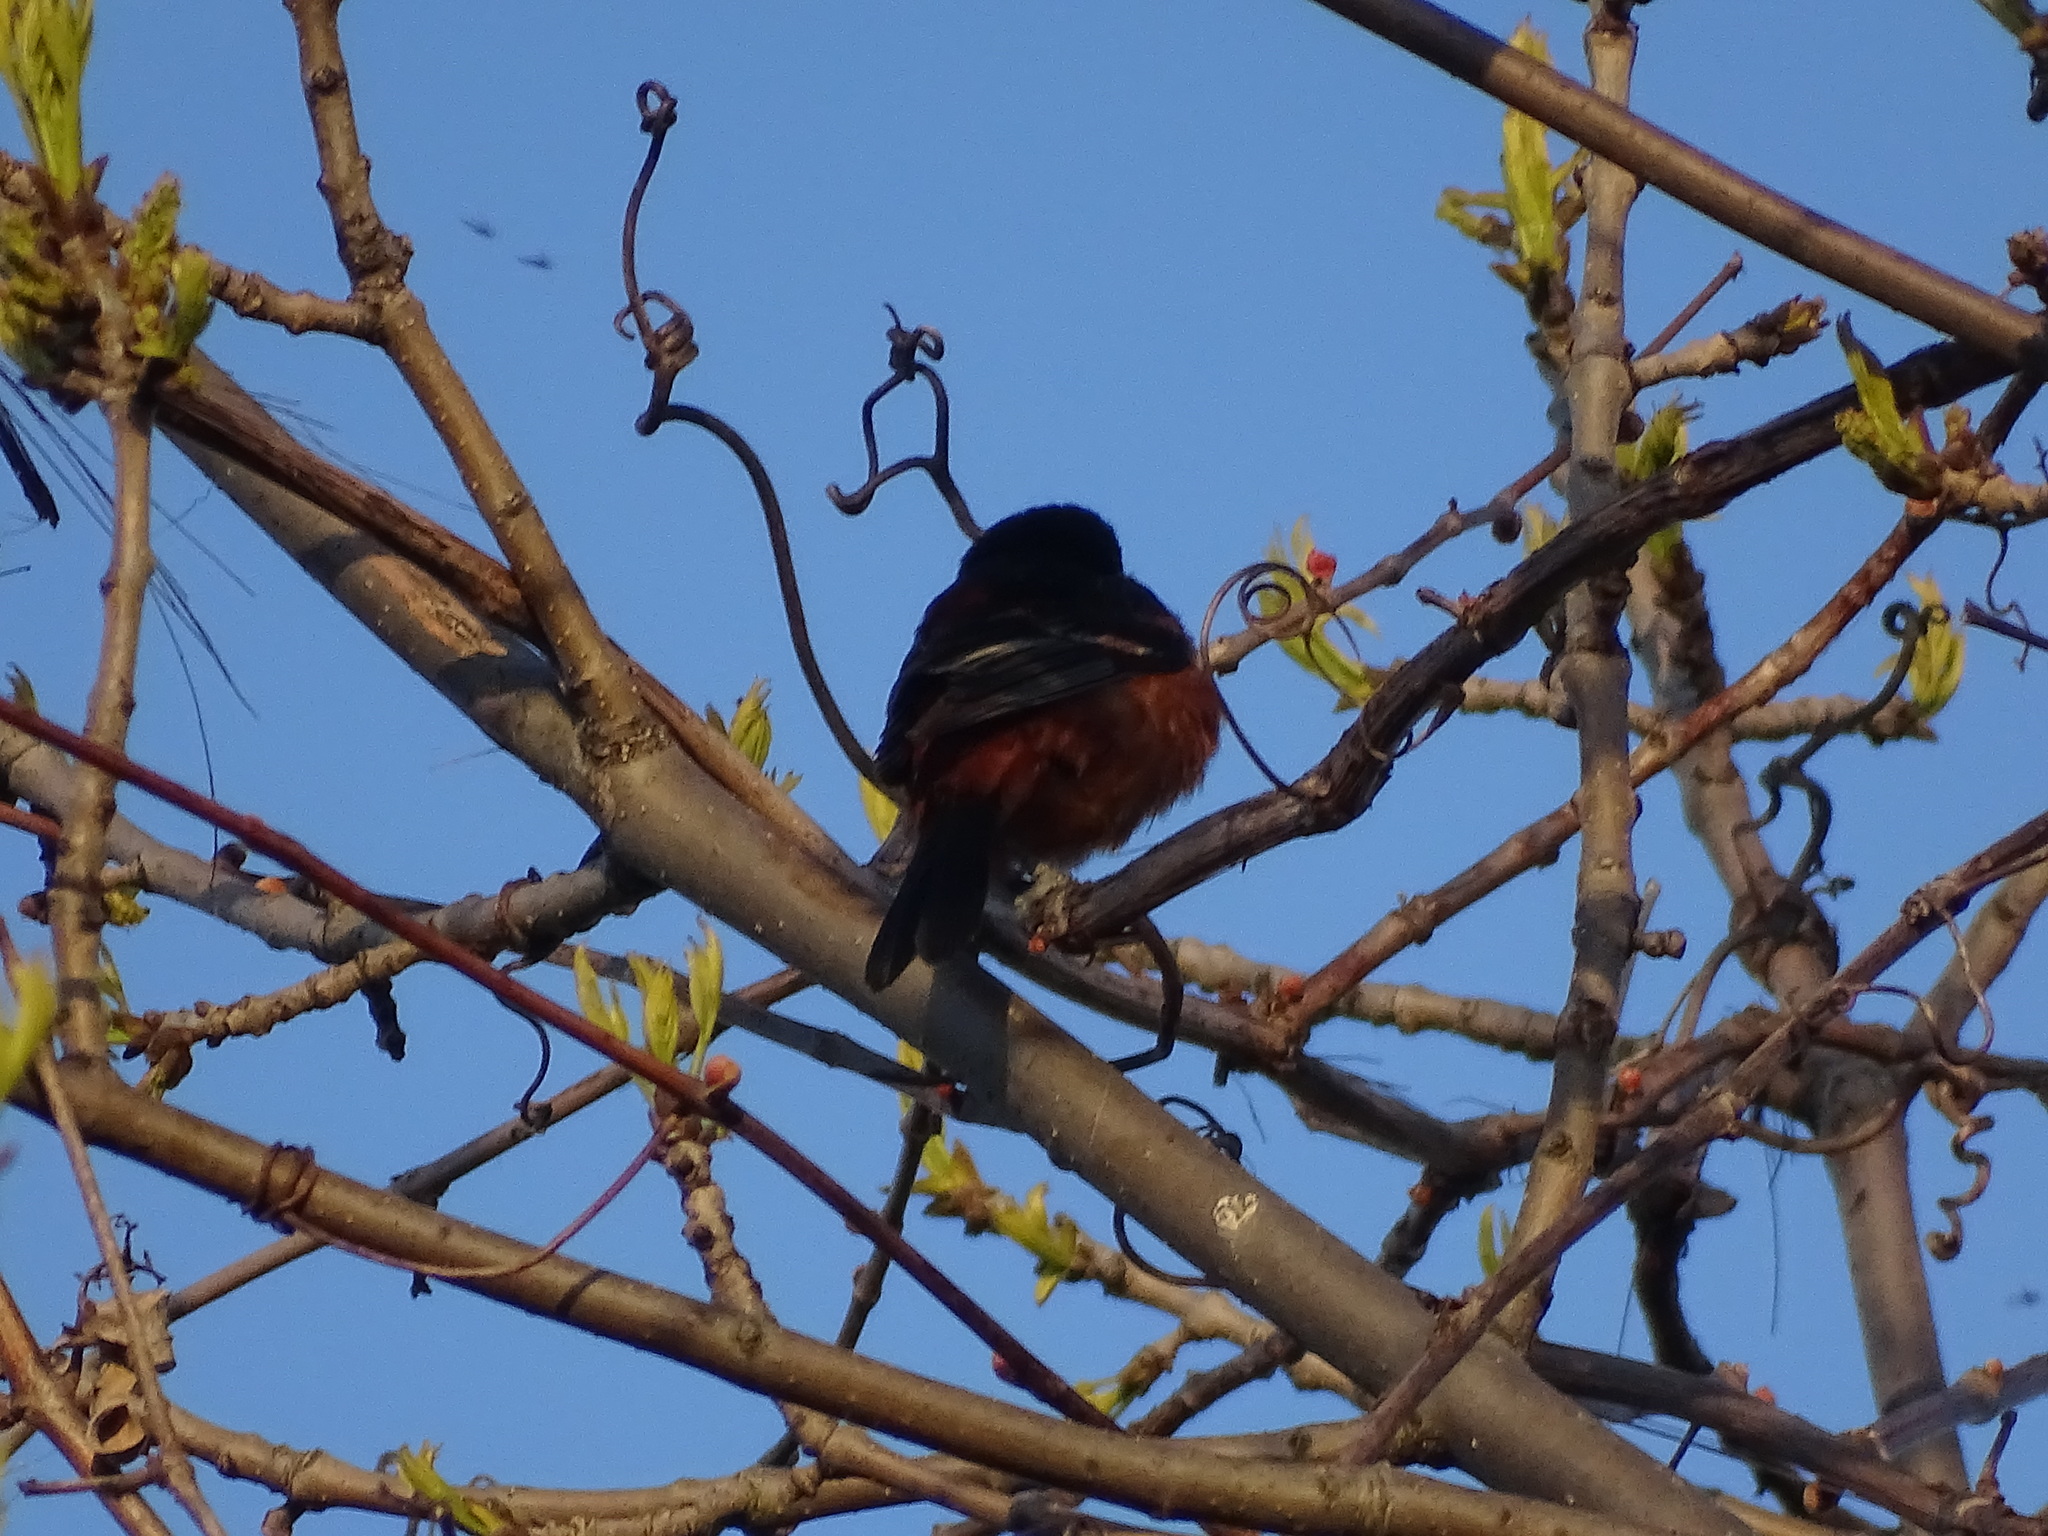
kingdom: Animalia
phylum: Chordata
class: Aves
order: Passeriformes
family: Icteridae
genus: Icterus
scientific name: Icterus spurius
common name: Orchard oriole
